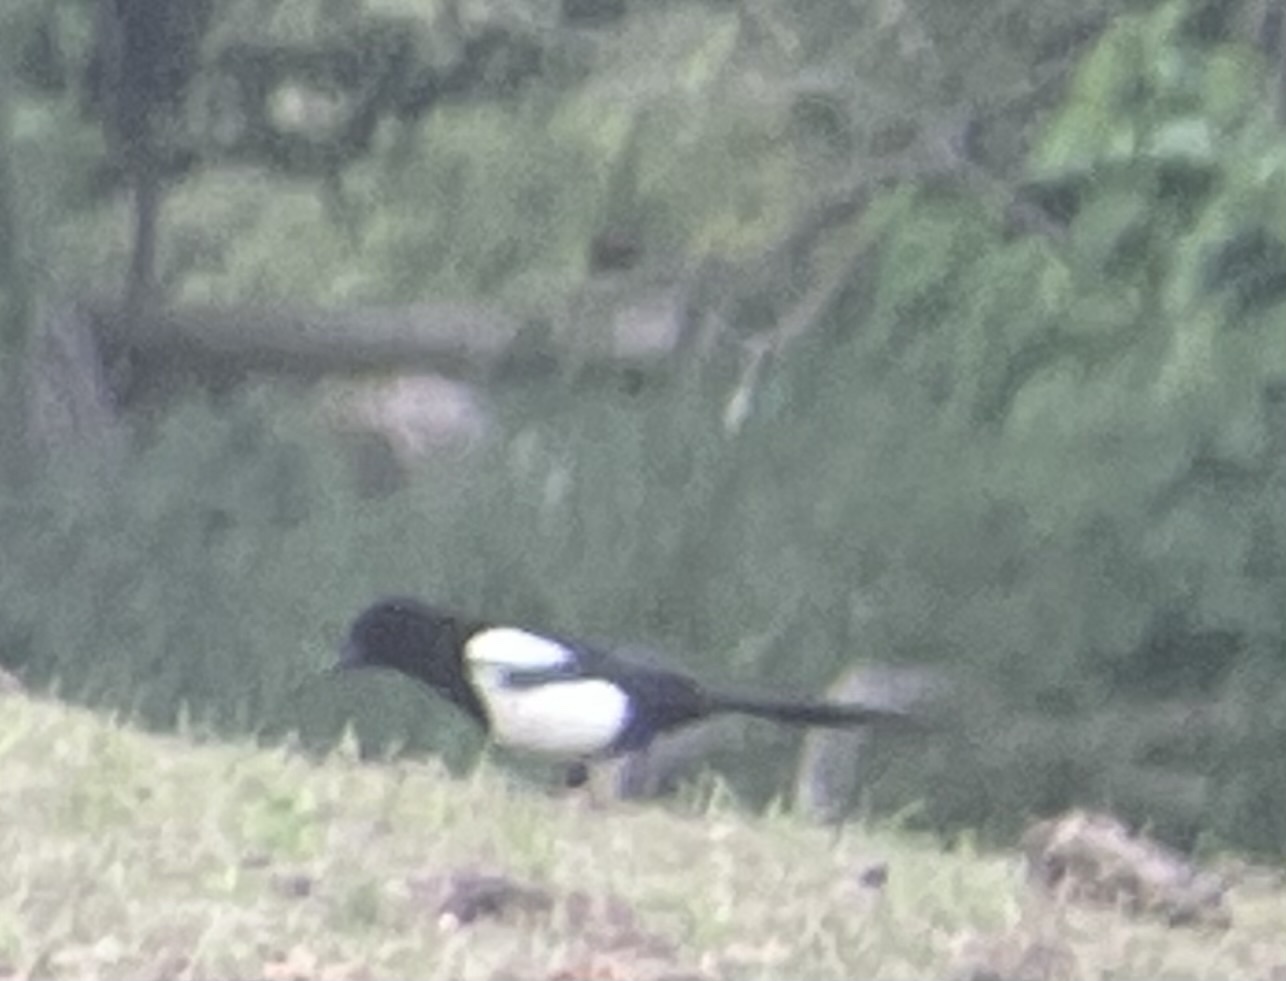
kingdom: Animalia
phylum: Chordata
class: Aves
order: Passeriformes
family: Corvidae
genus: Pica
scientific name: Pica pica
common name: Eurasian magpie
